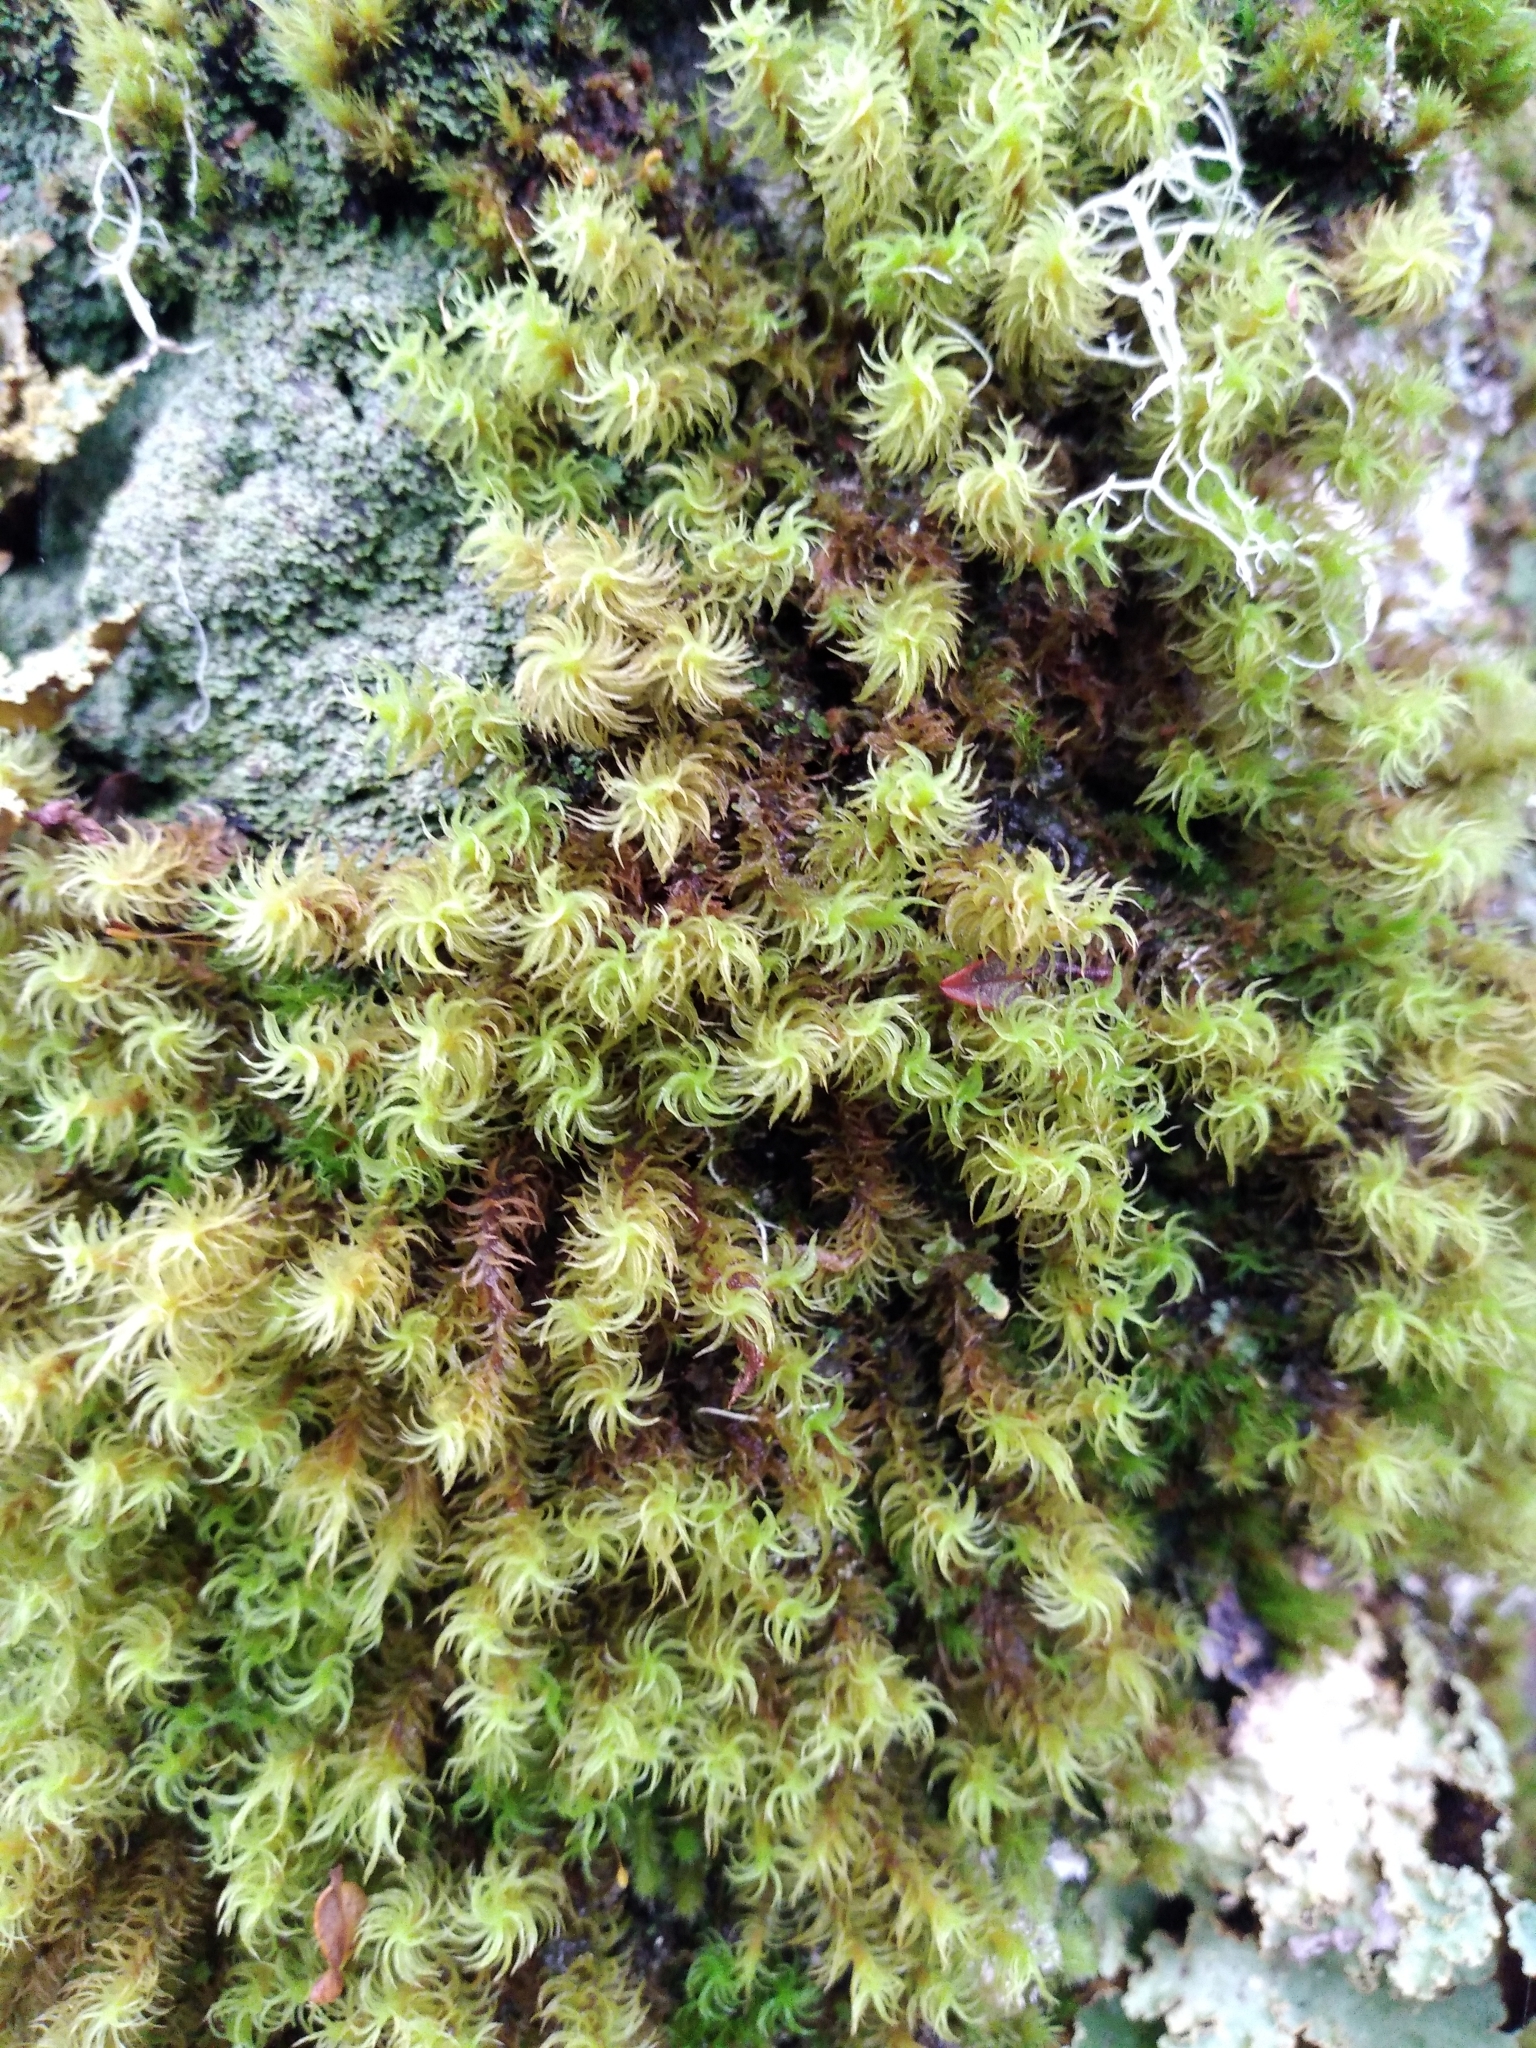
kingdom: Plantae
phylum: Bryophyta
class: Bryopsida
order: Dicranales
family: Dicranaceae
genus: Mesotus
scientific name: Mesotus celatus
